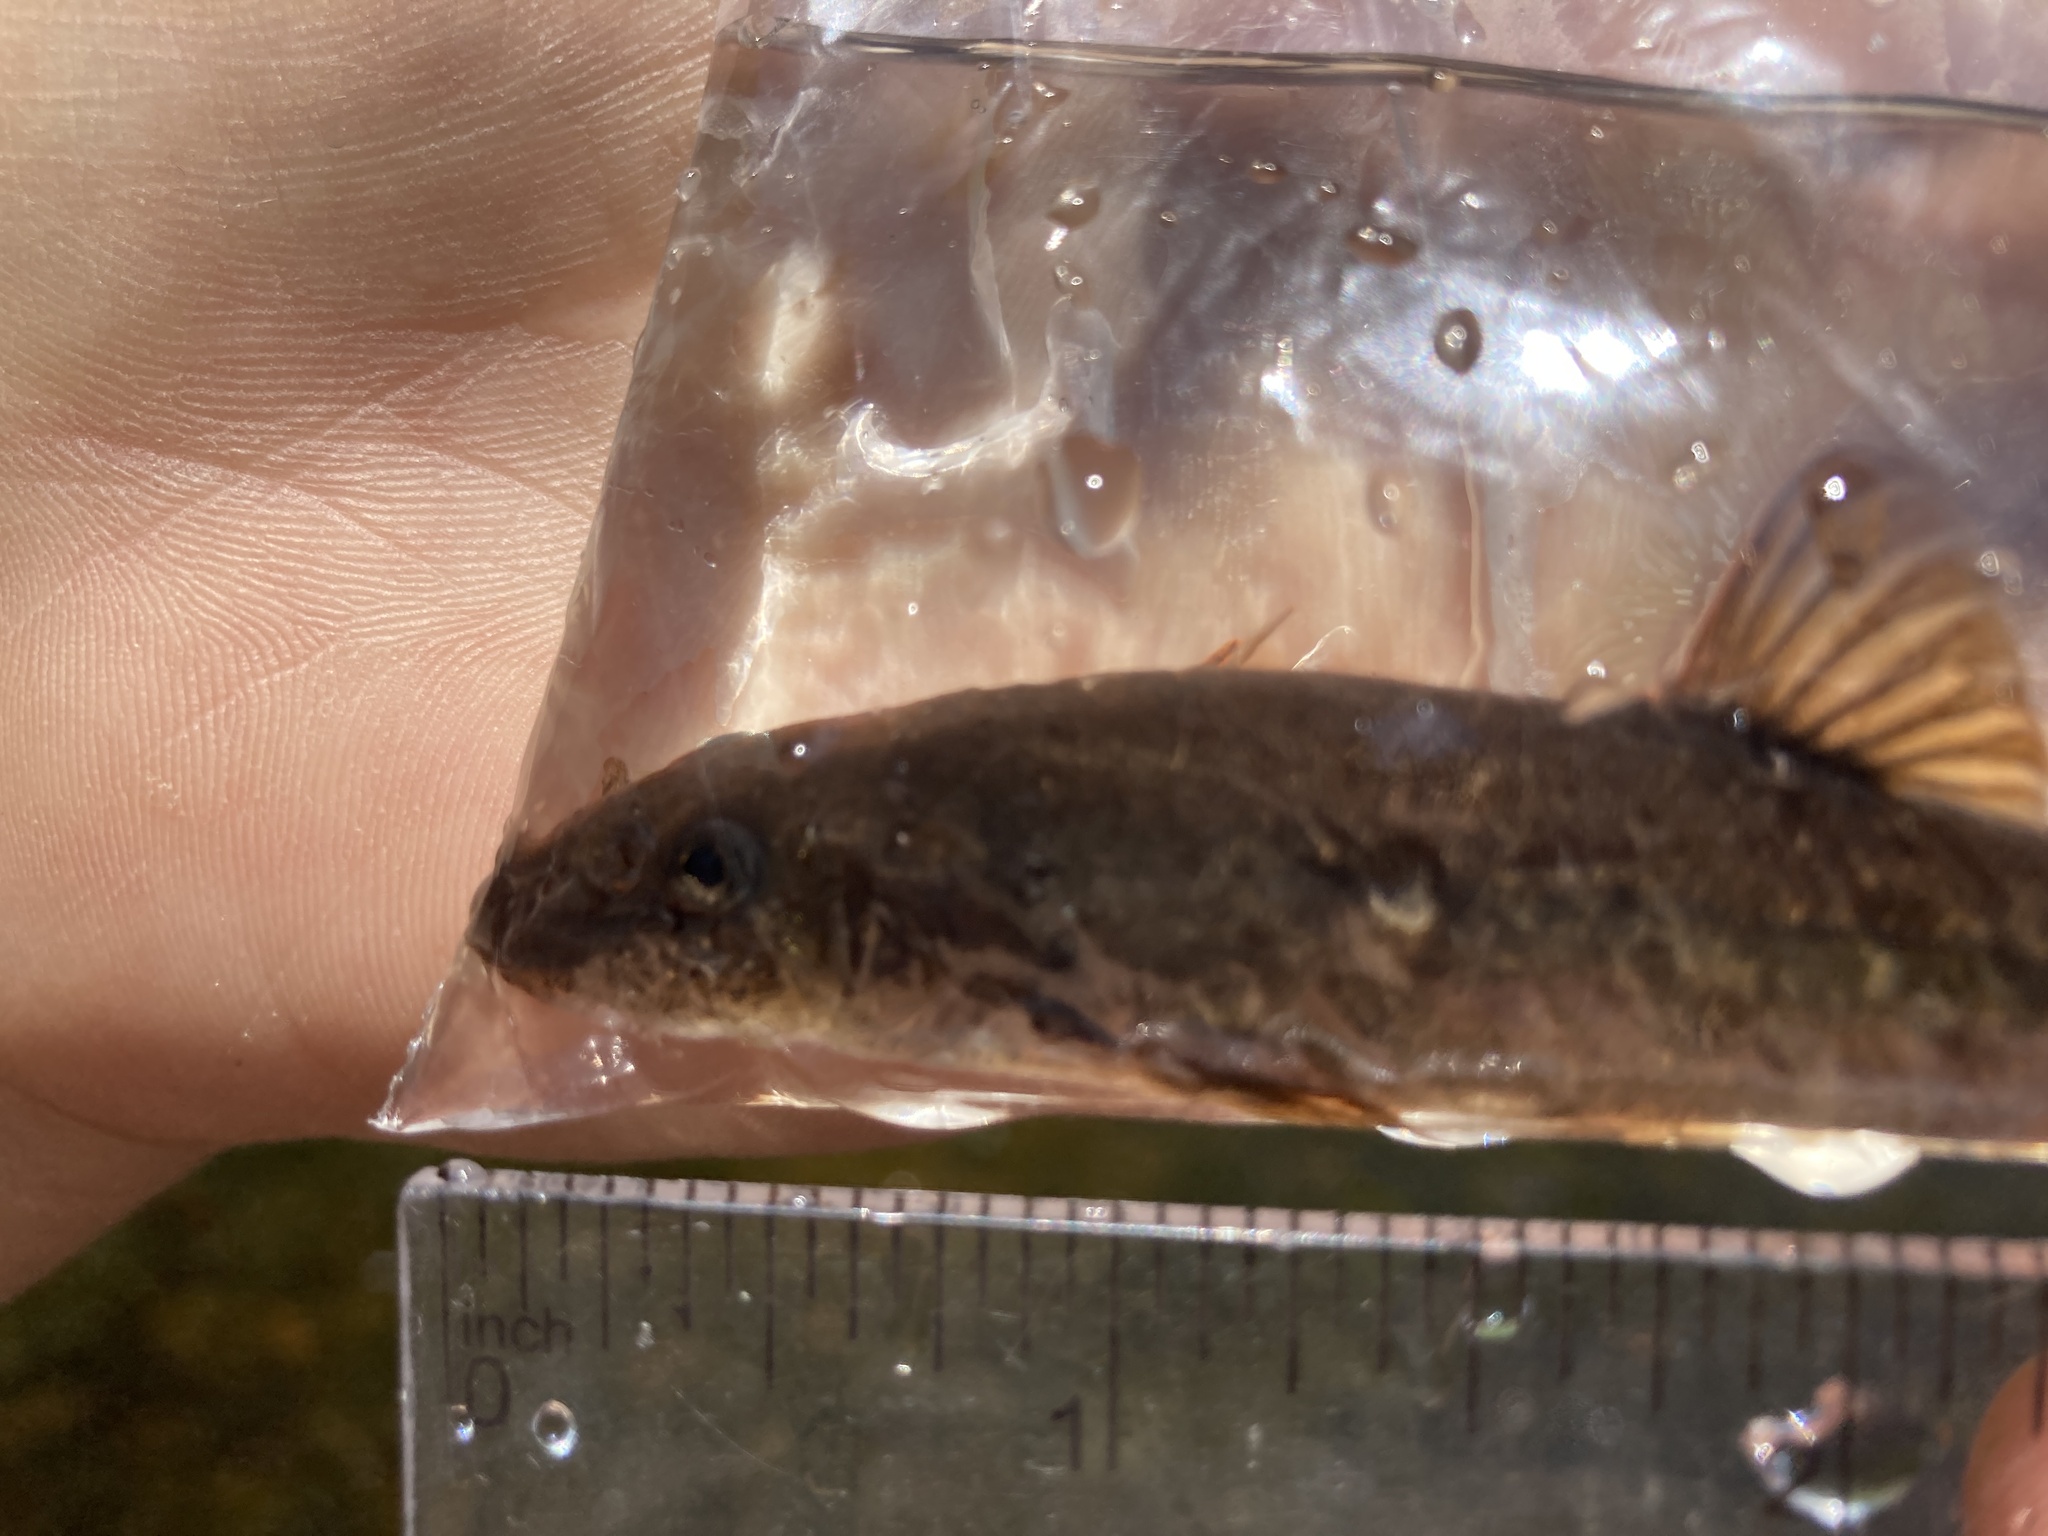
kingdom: Animalia
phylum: Chordata
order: Cypriniformes
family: Cyprinidae
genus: Rhinichthys
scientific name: Rhinichthys cataractae
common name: Longnose dace
